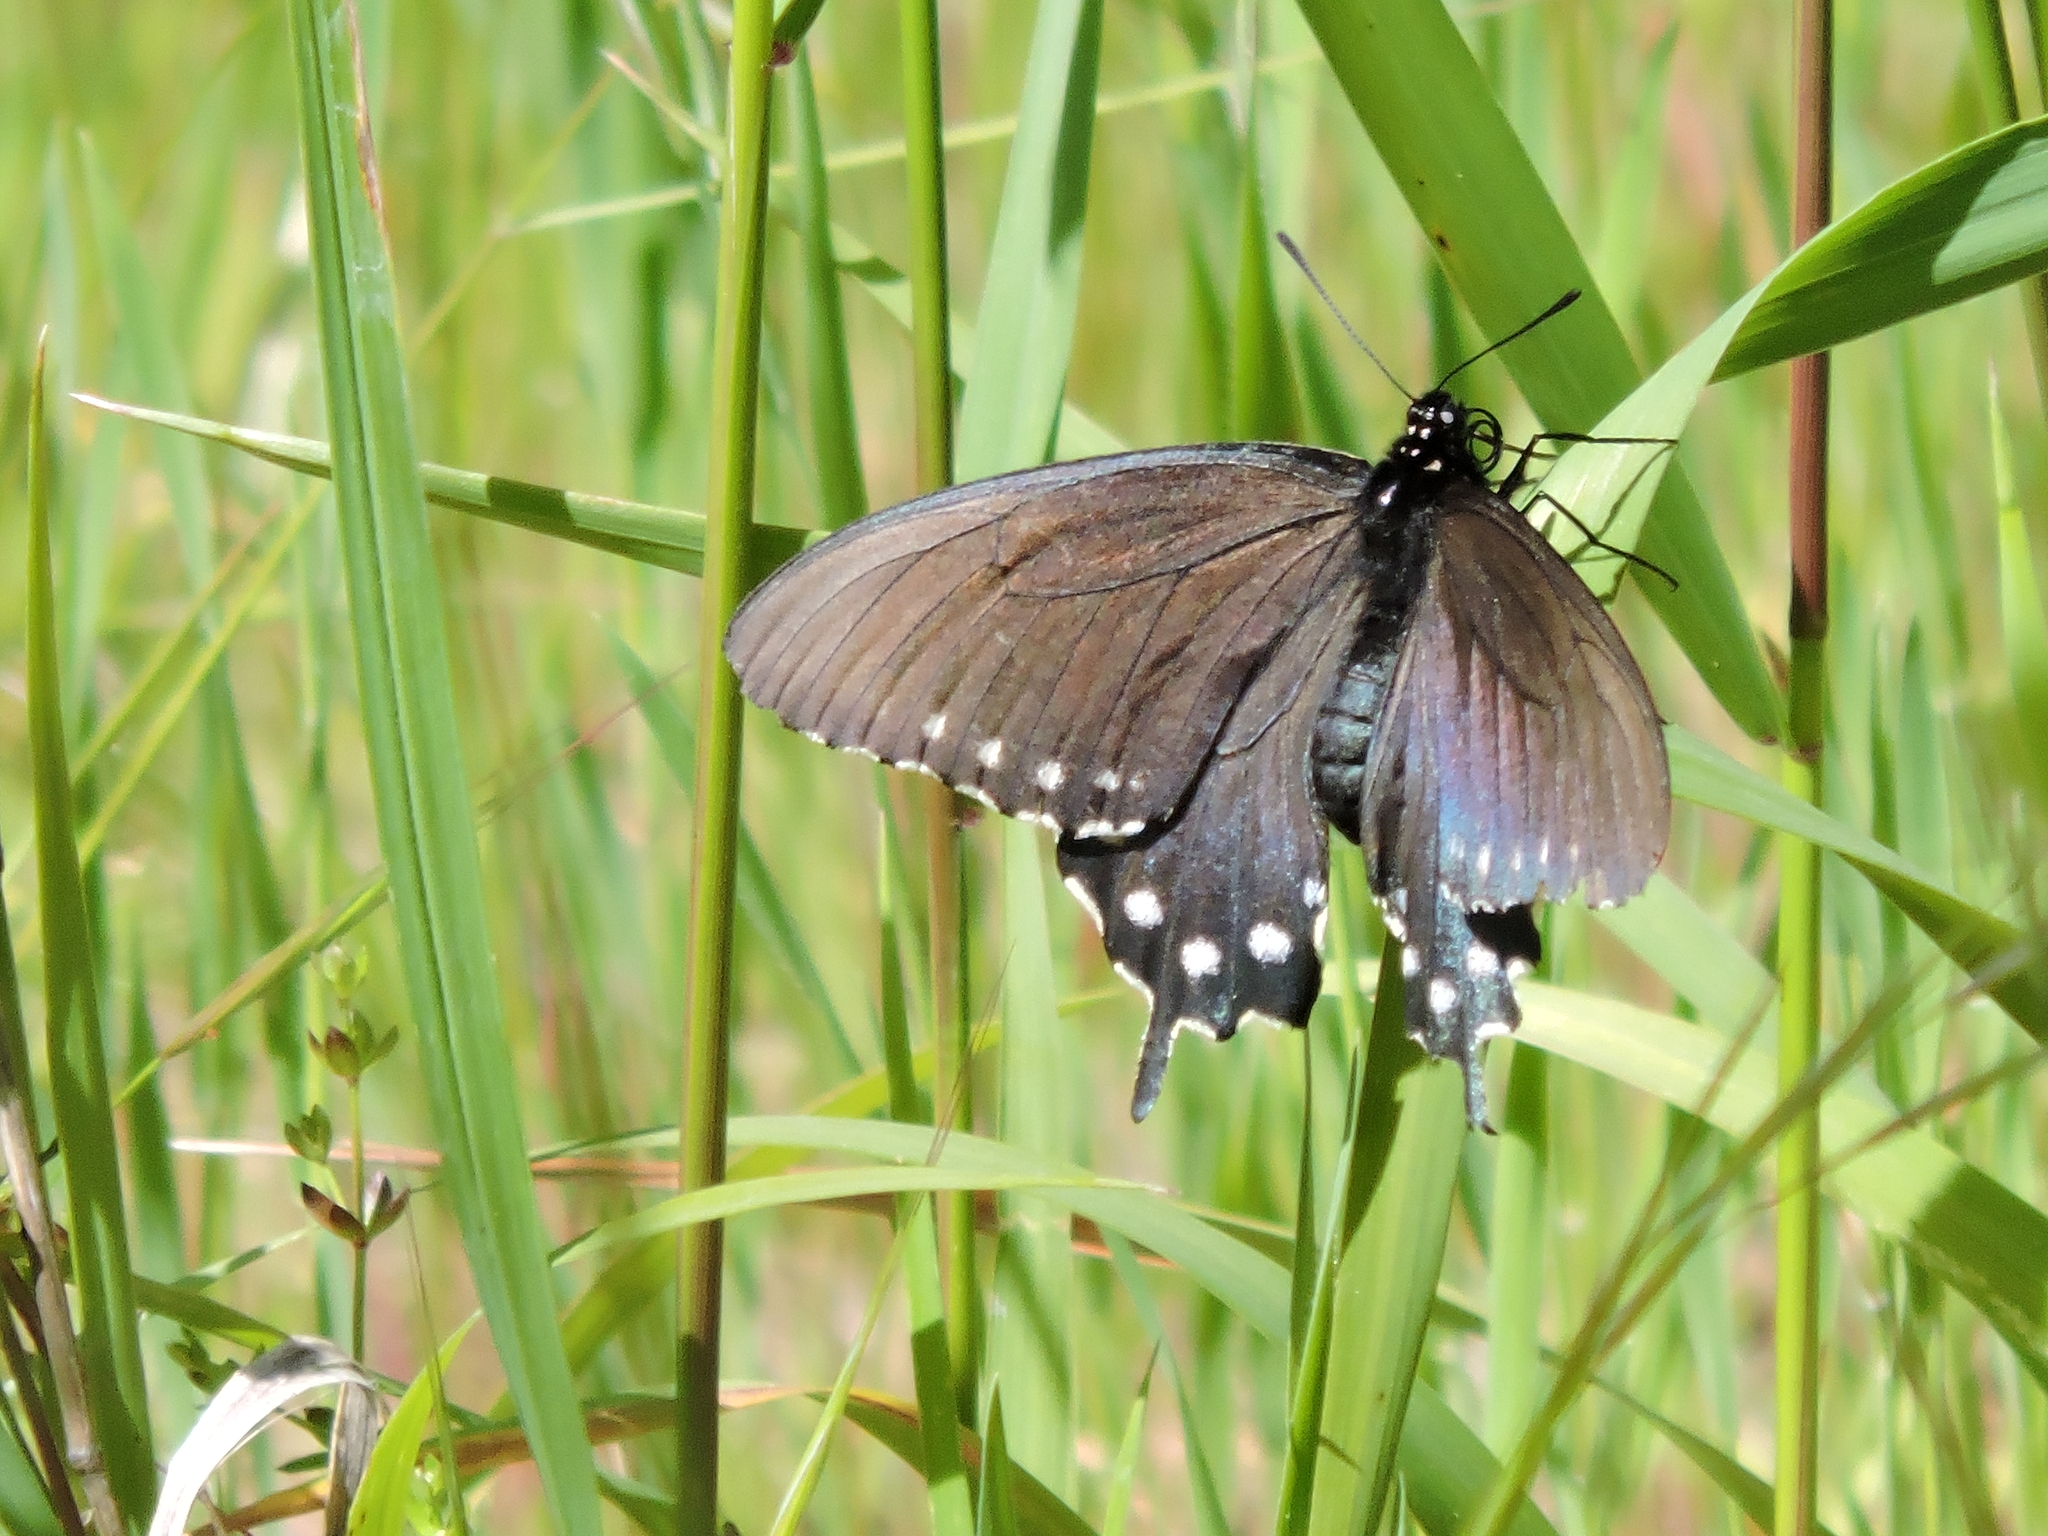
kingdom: Animalia
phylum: Arthropoda
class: Insecta
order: Lepidoptera
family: Papilionidae
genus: Battus
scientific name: Battus philenor
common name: Pipevine swallowtail
